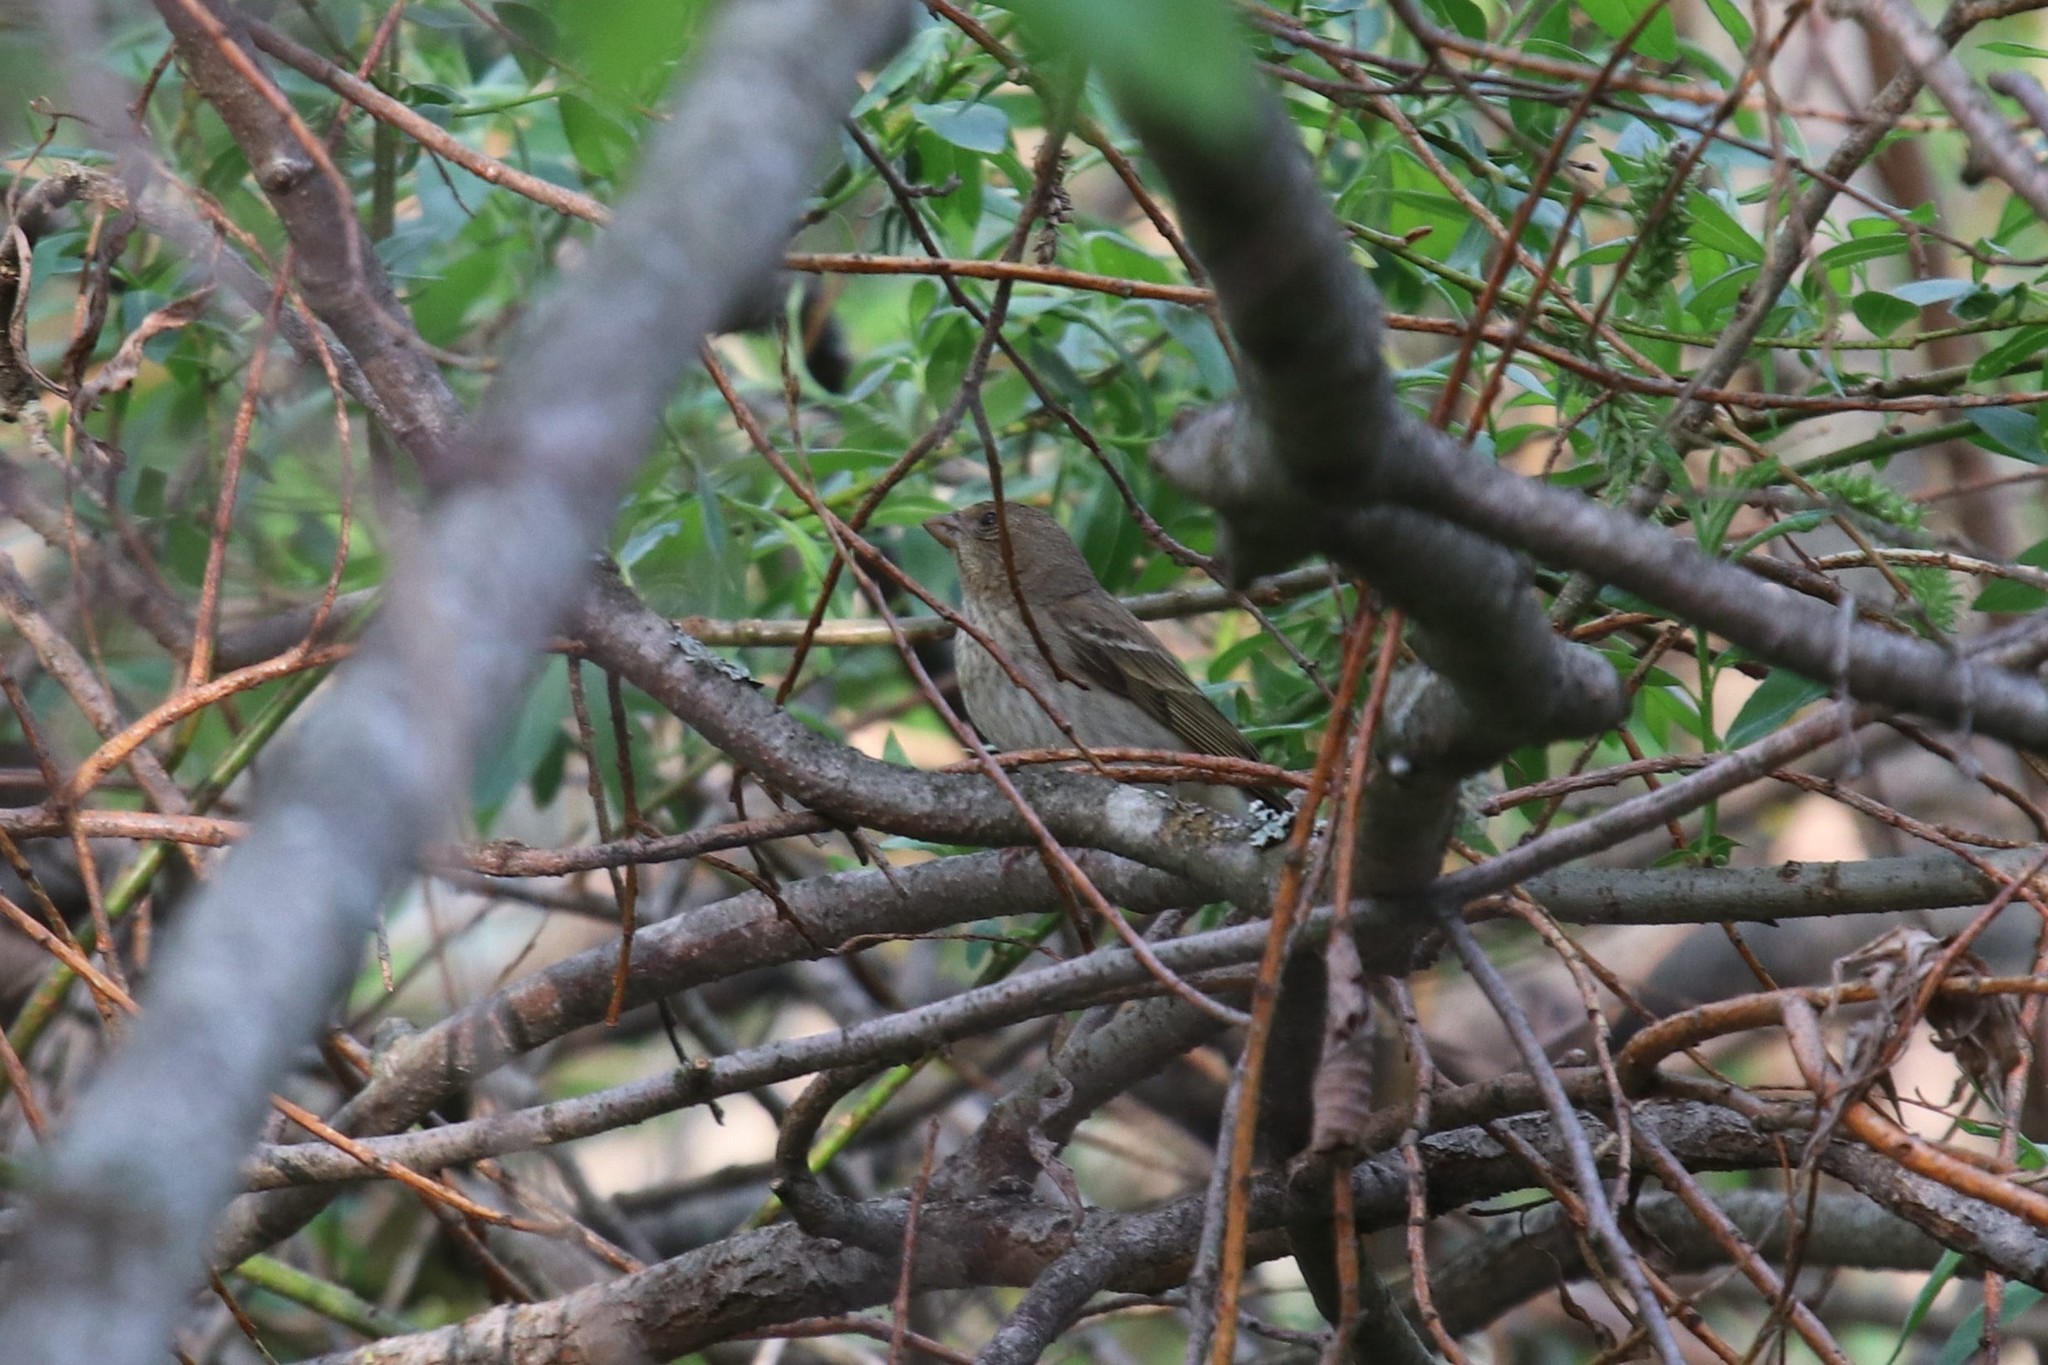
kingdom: Animalia
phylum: Chordata
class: Aves
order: Passeriformes
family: Fringillidae
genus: Carpodacus
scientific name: Carpodacus erythrinus
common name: Common rosefinch
